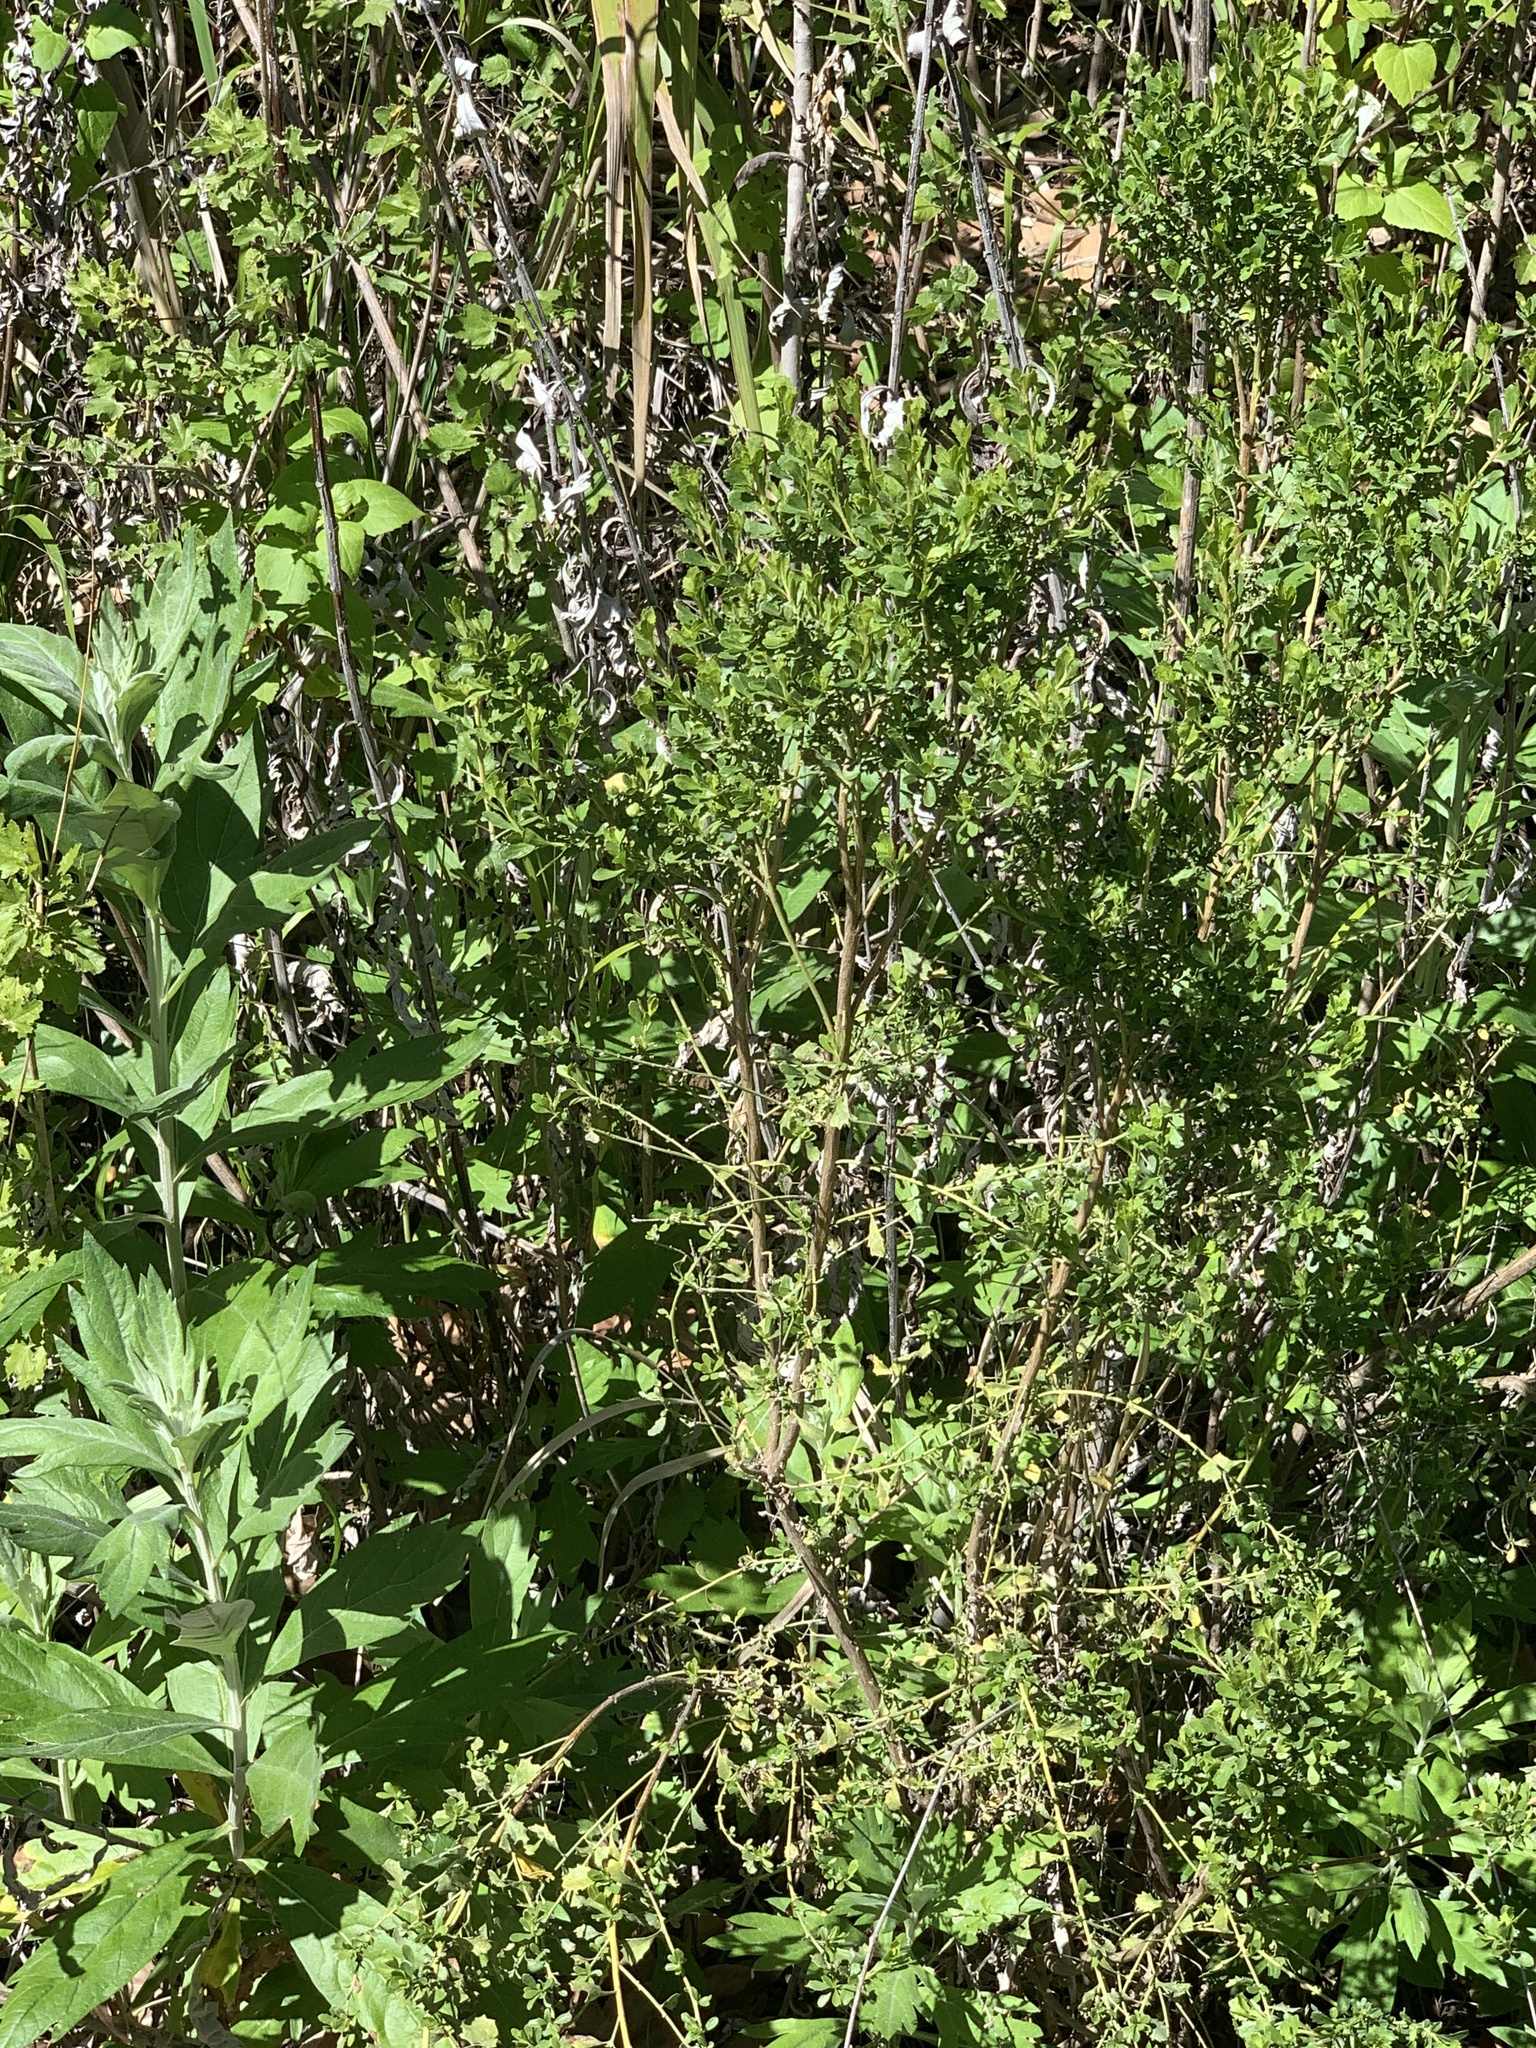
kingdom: Plantae
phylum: Tracheophyta
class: Magnoliopsida
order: Asterales
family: Asteraceae
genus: Baccharis
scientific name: Baccharis pilularis
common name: Coyotebrush
